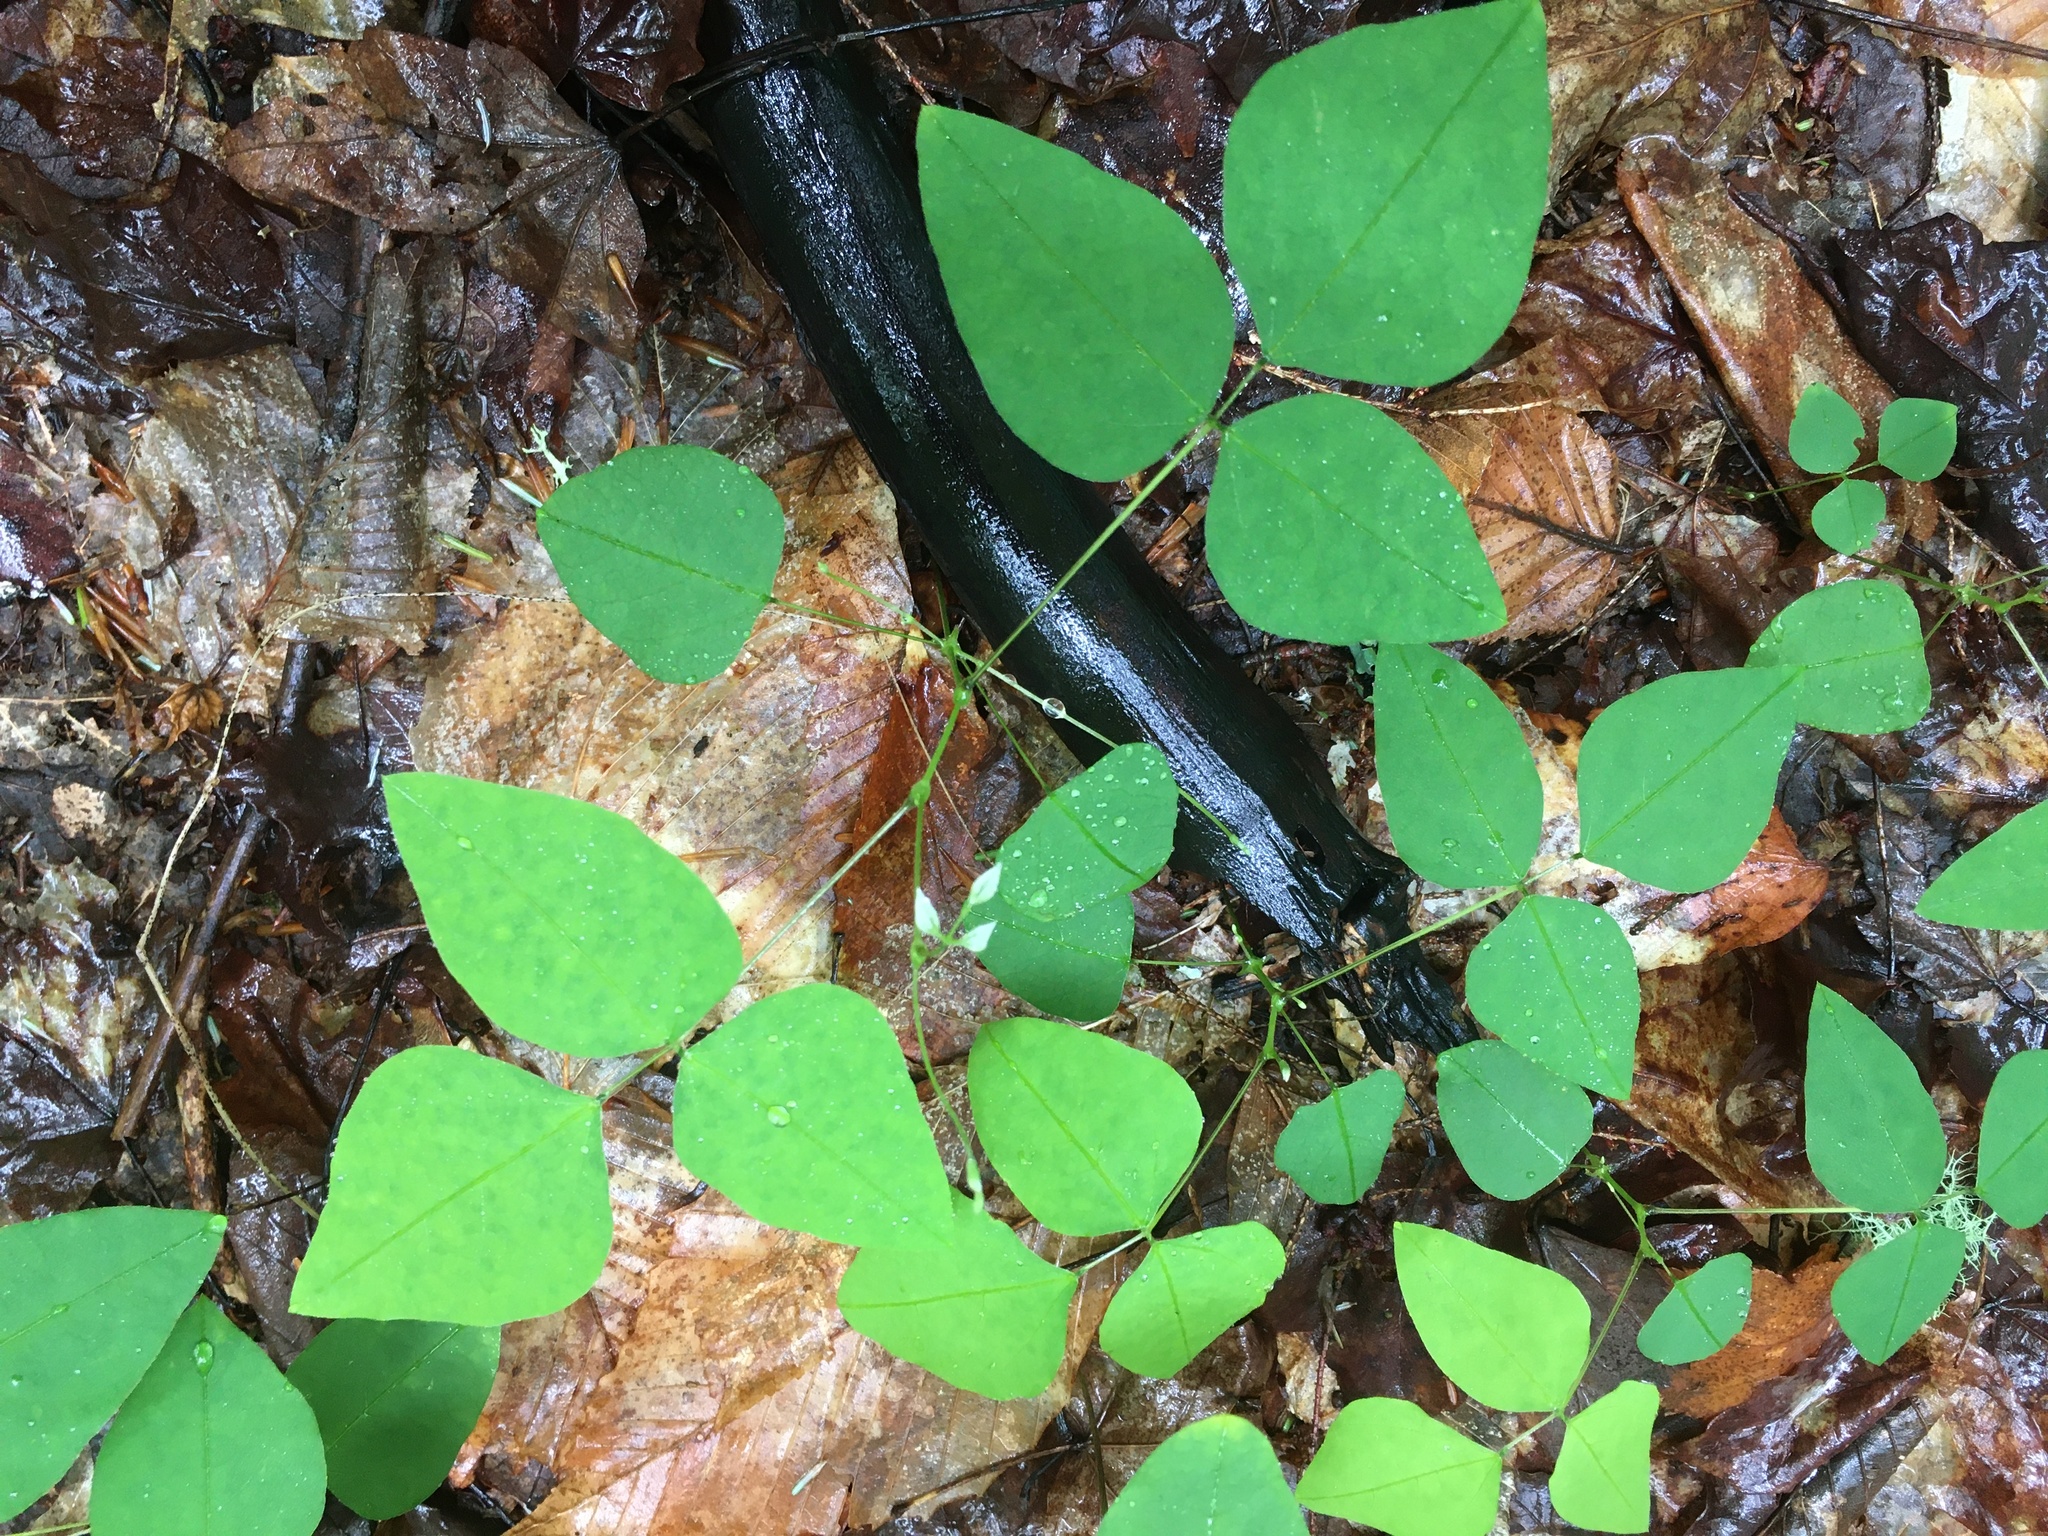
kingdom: Plantae
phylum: Tracheophyta
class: Magnoliopsida
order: Fabales
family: Fabaceae
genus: Amphicarpaea
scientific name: Amphicarpaea bracteata
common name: American hog peanut
